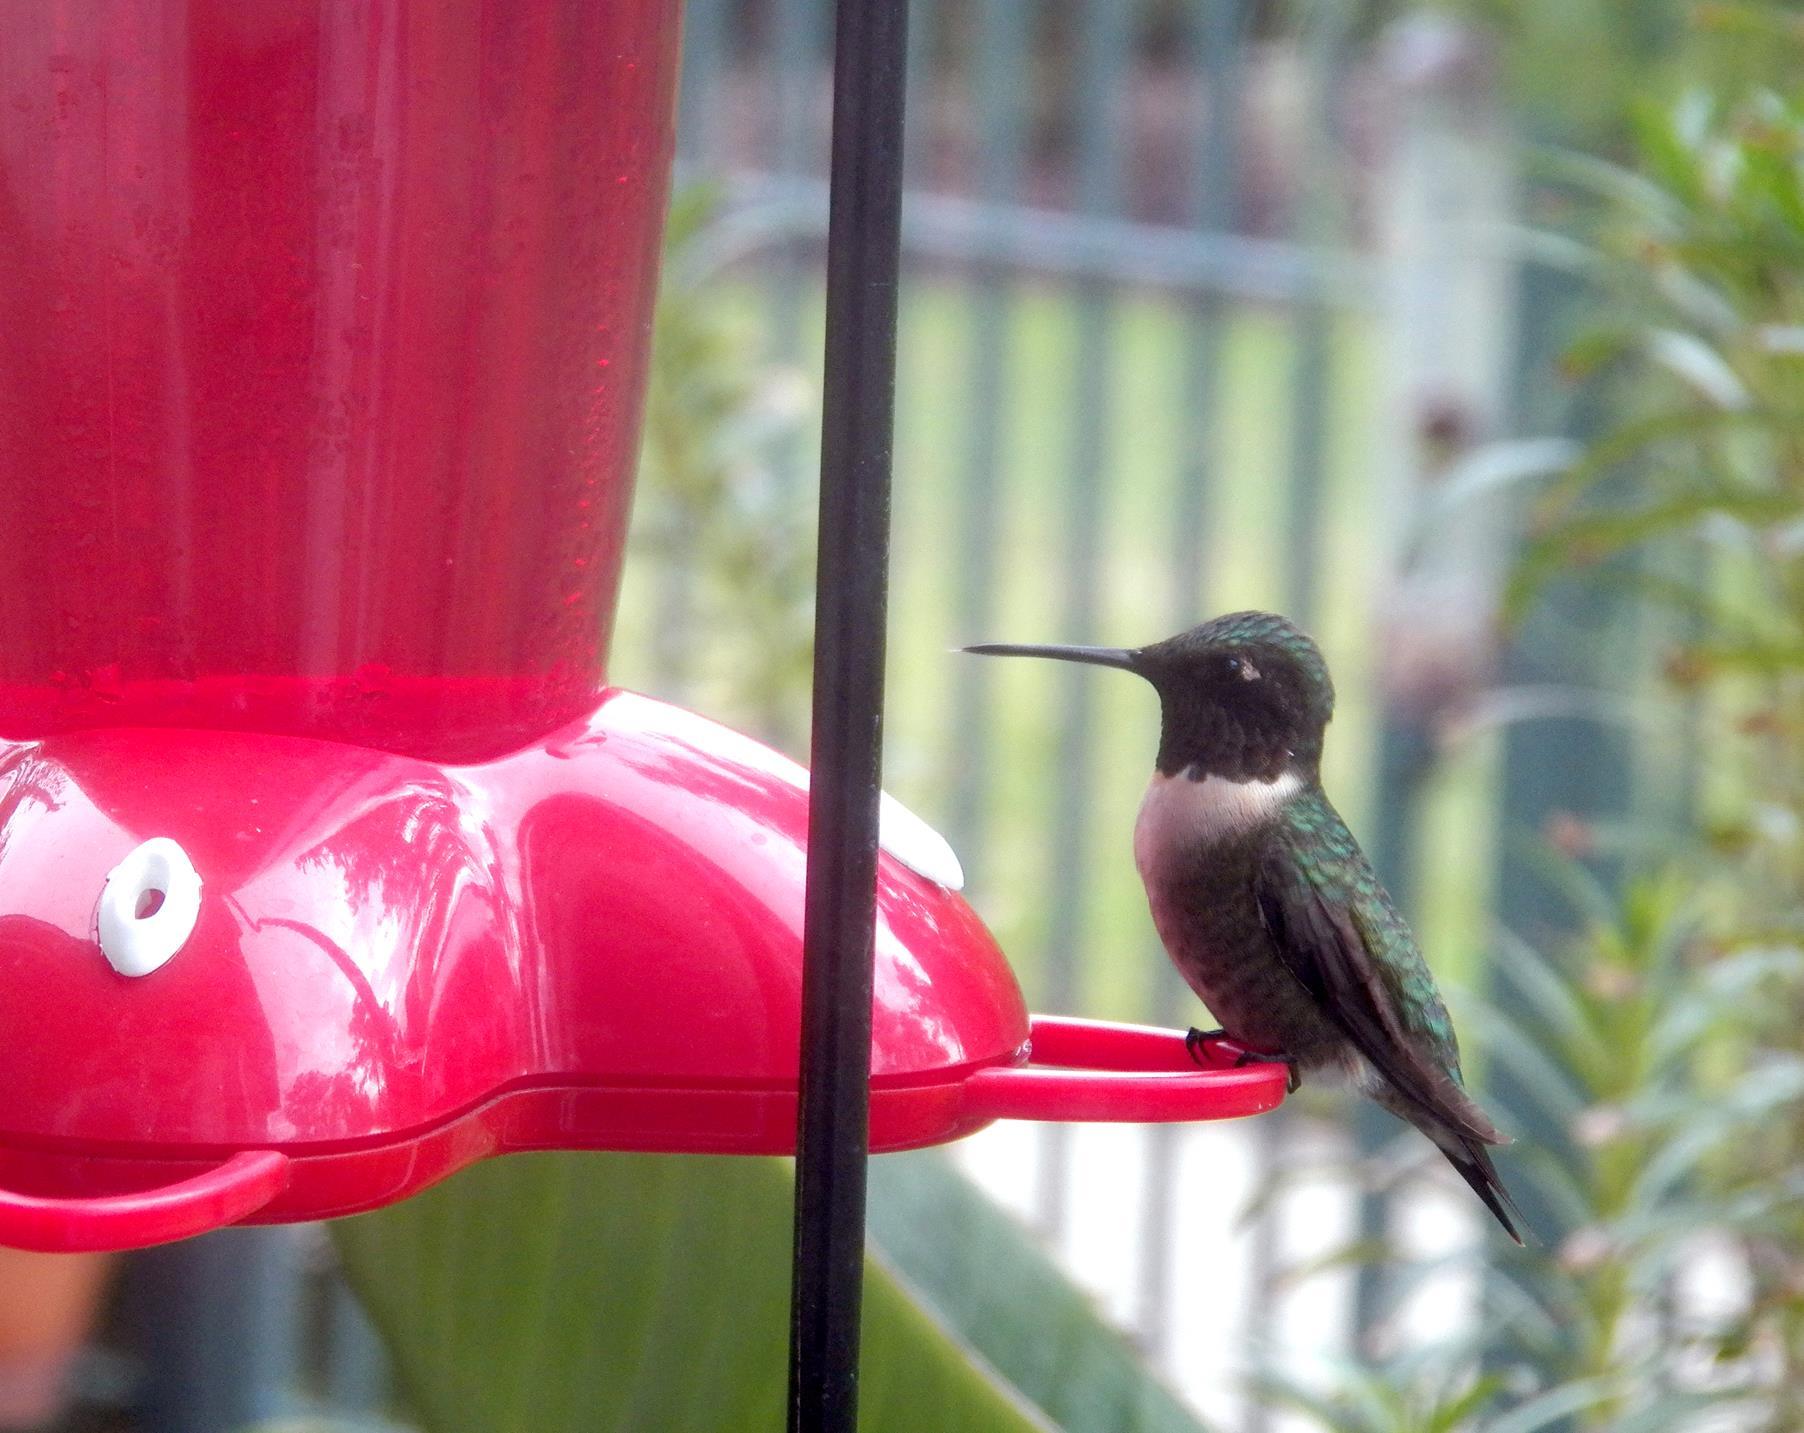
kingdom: Animalia
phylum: Chordata
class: Aves
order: Apodiformes
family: Trochilidae
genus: Archilochus
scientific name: Archilochus colubris
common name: Ruby-throated hummingbird
